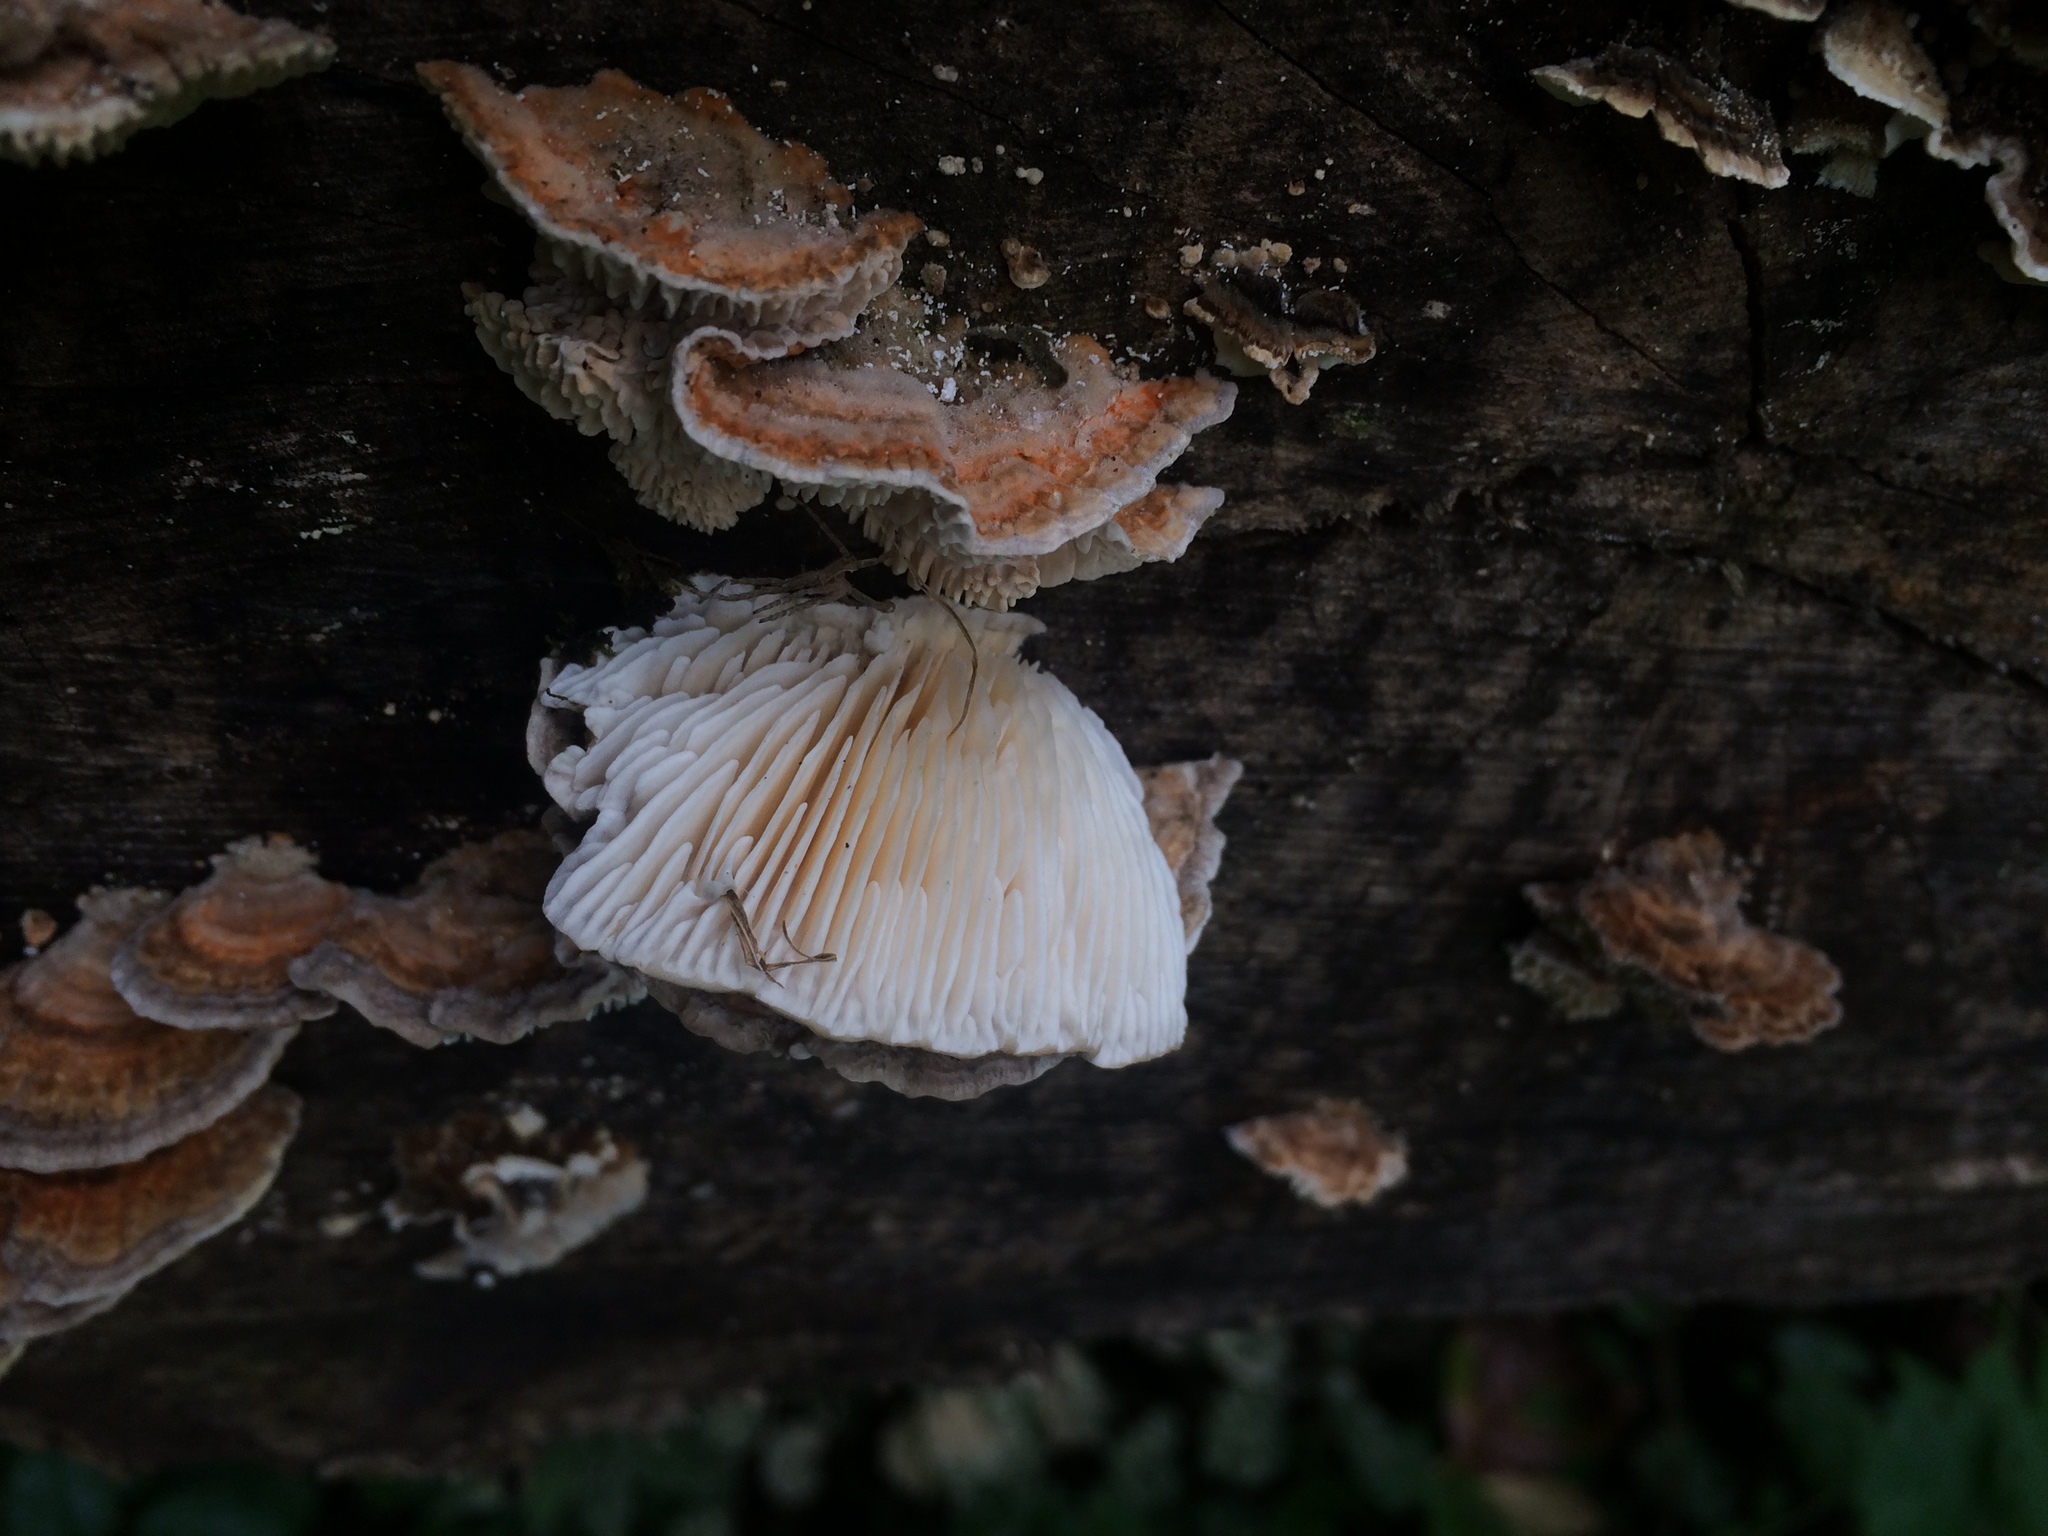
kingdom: Fungi
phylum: Basidiomycota
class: Agaricomycetes
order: Polyporales
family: Polyporaceae
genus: Lenzites
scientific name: Lenzites betulinus
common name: Birch mazegill
